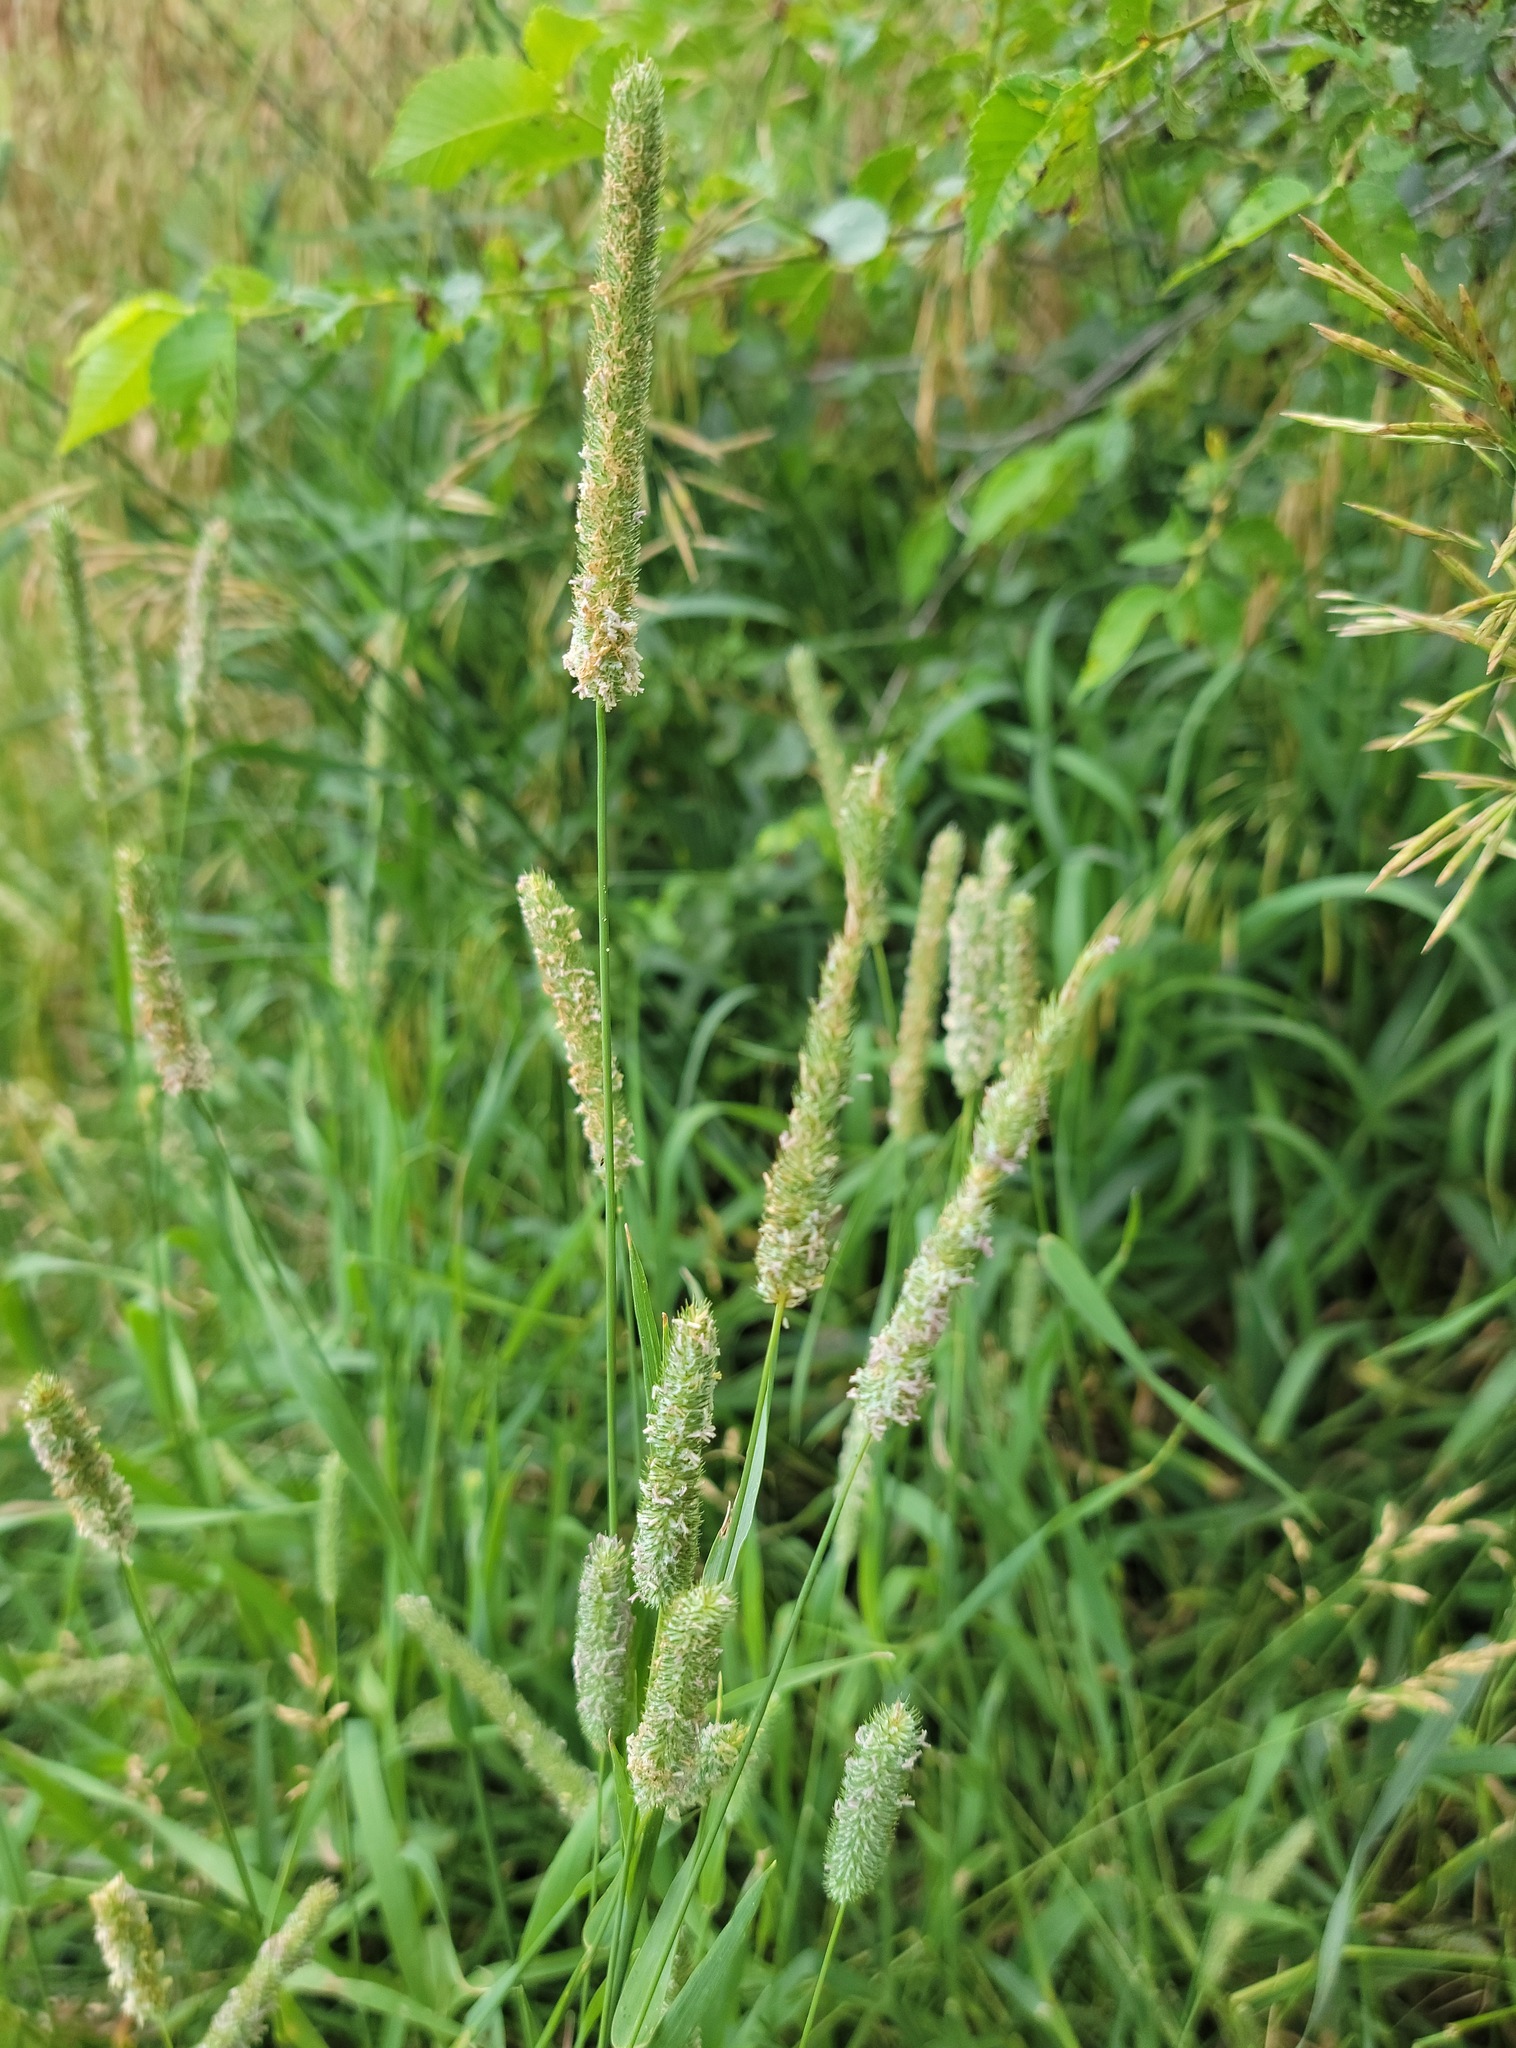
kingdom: Plantae
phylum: Tracheophyta
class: Liliopsida
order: Poales
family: Poaceae
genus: Phleum
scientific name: Phleum pratense
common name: Timothy grass
